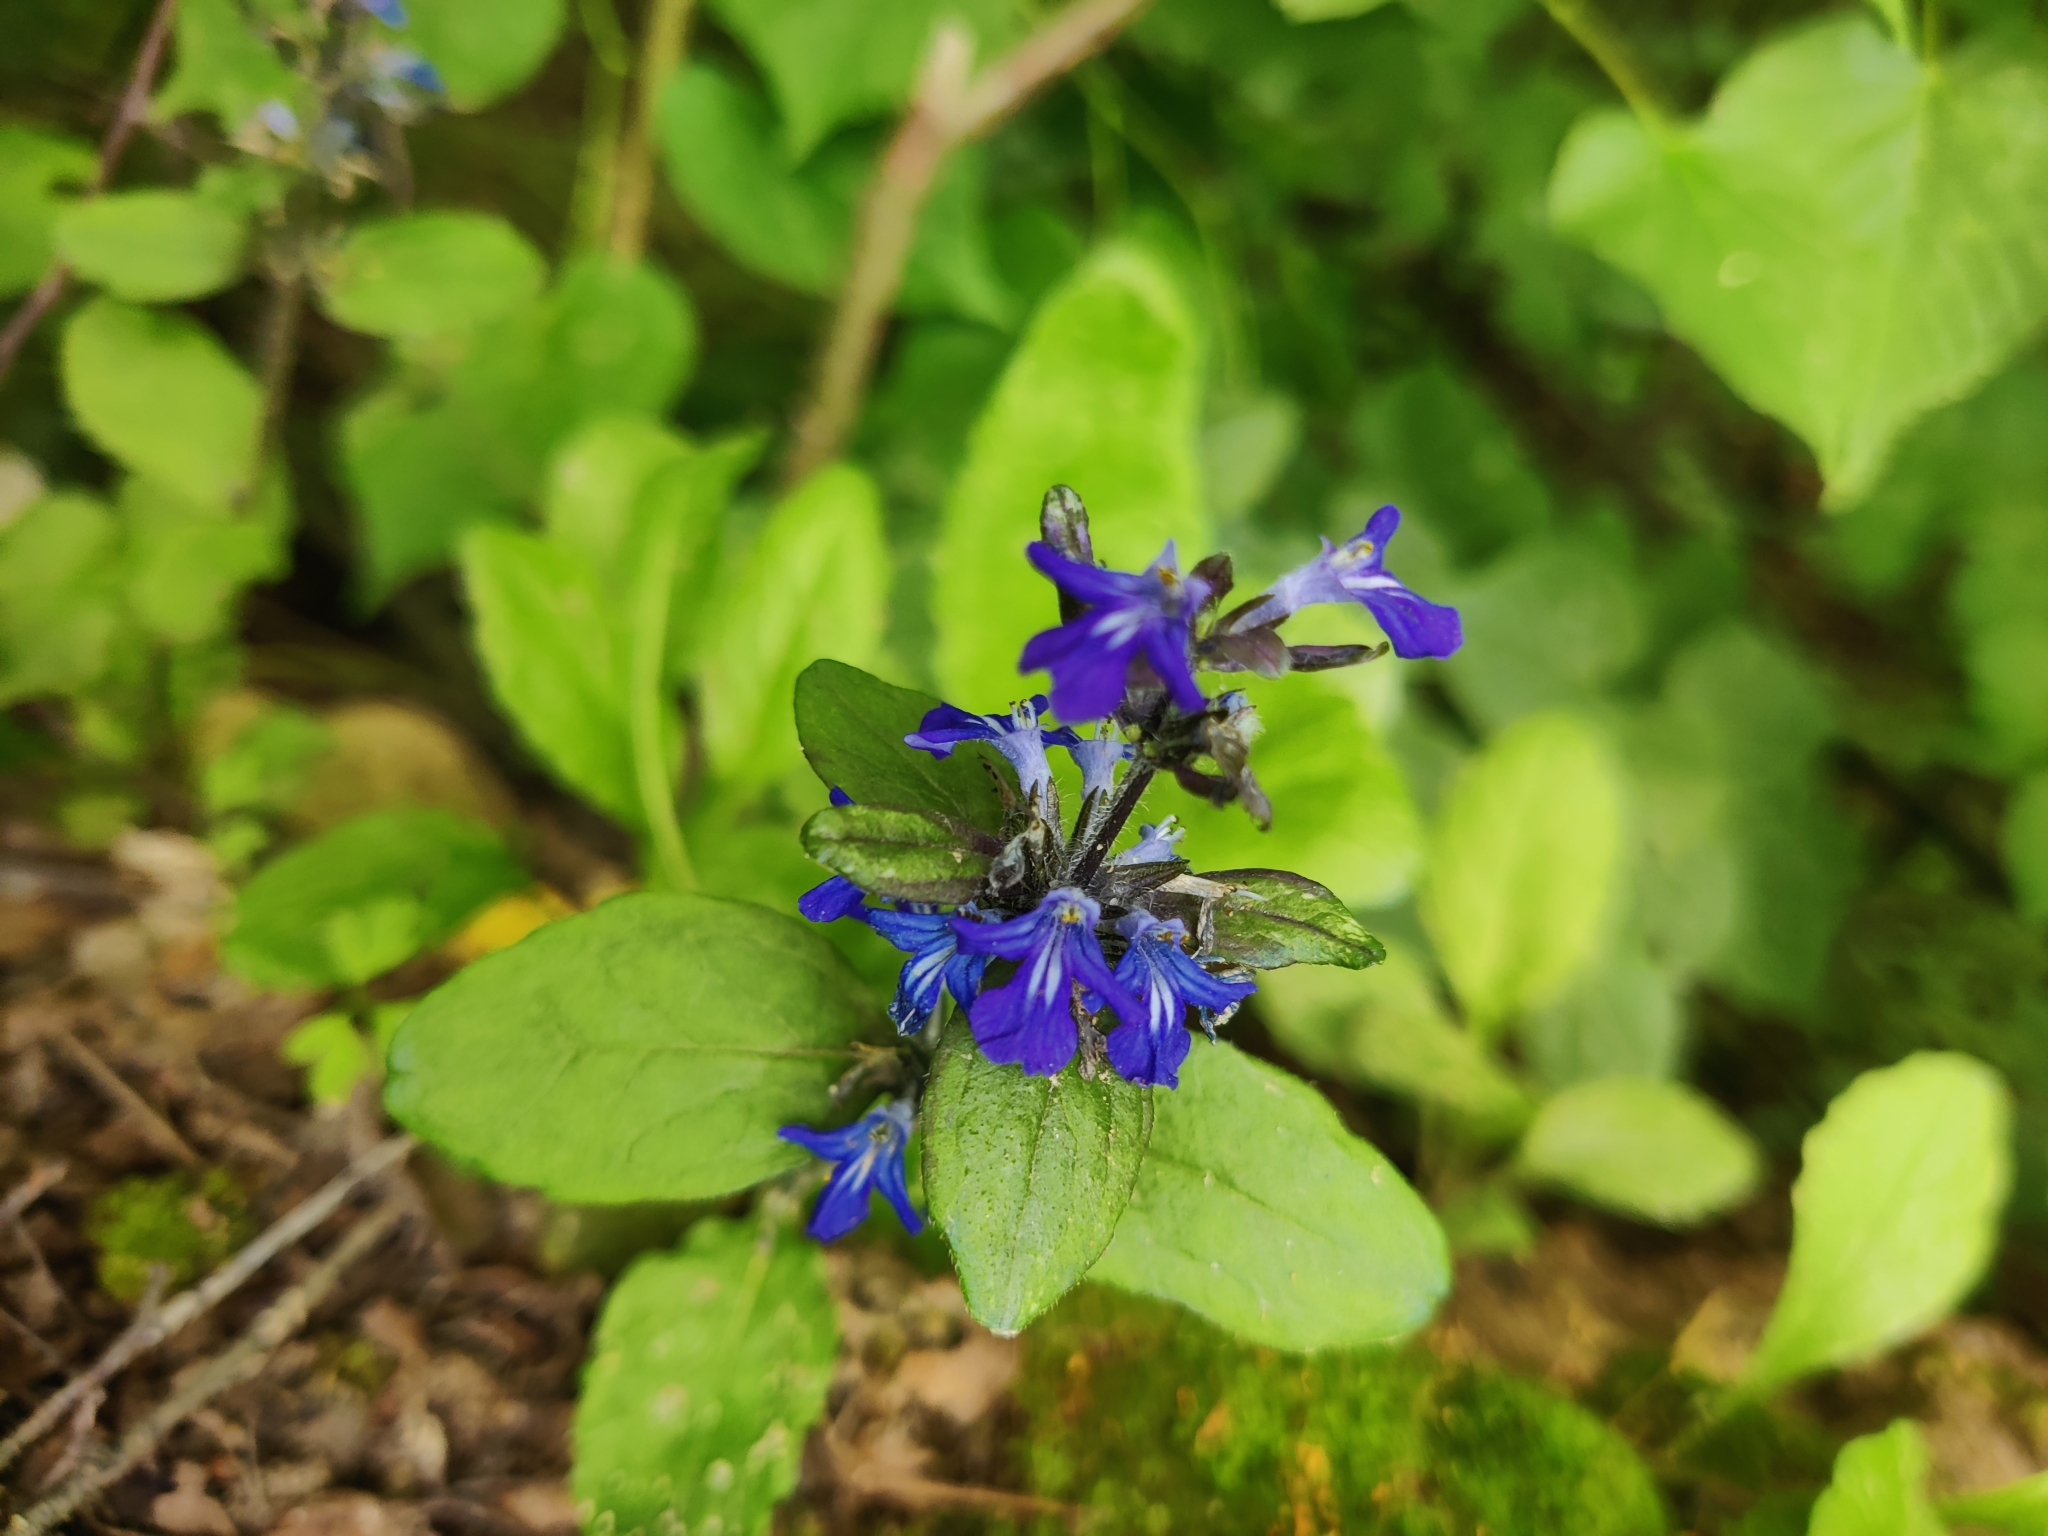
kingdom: Plantae
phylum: Tracheophyta
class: Magnoliopsida
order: Lamiales
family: Lamiaceae
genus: Ajuga
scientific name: Ajuga reptans
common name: Bugle
